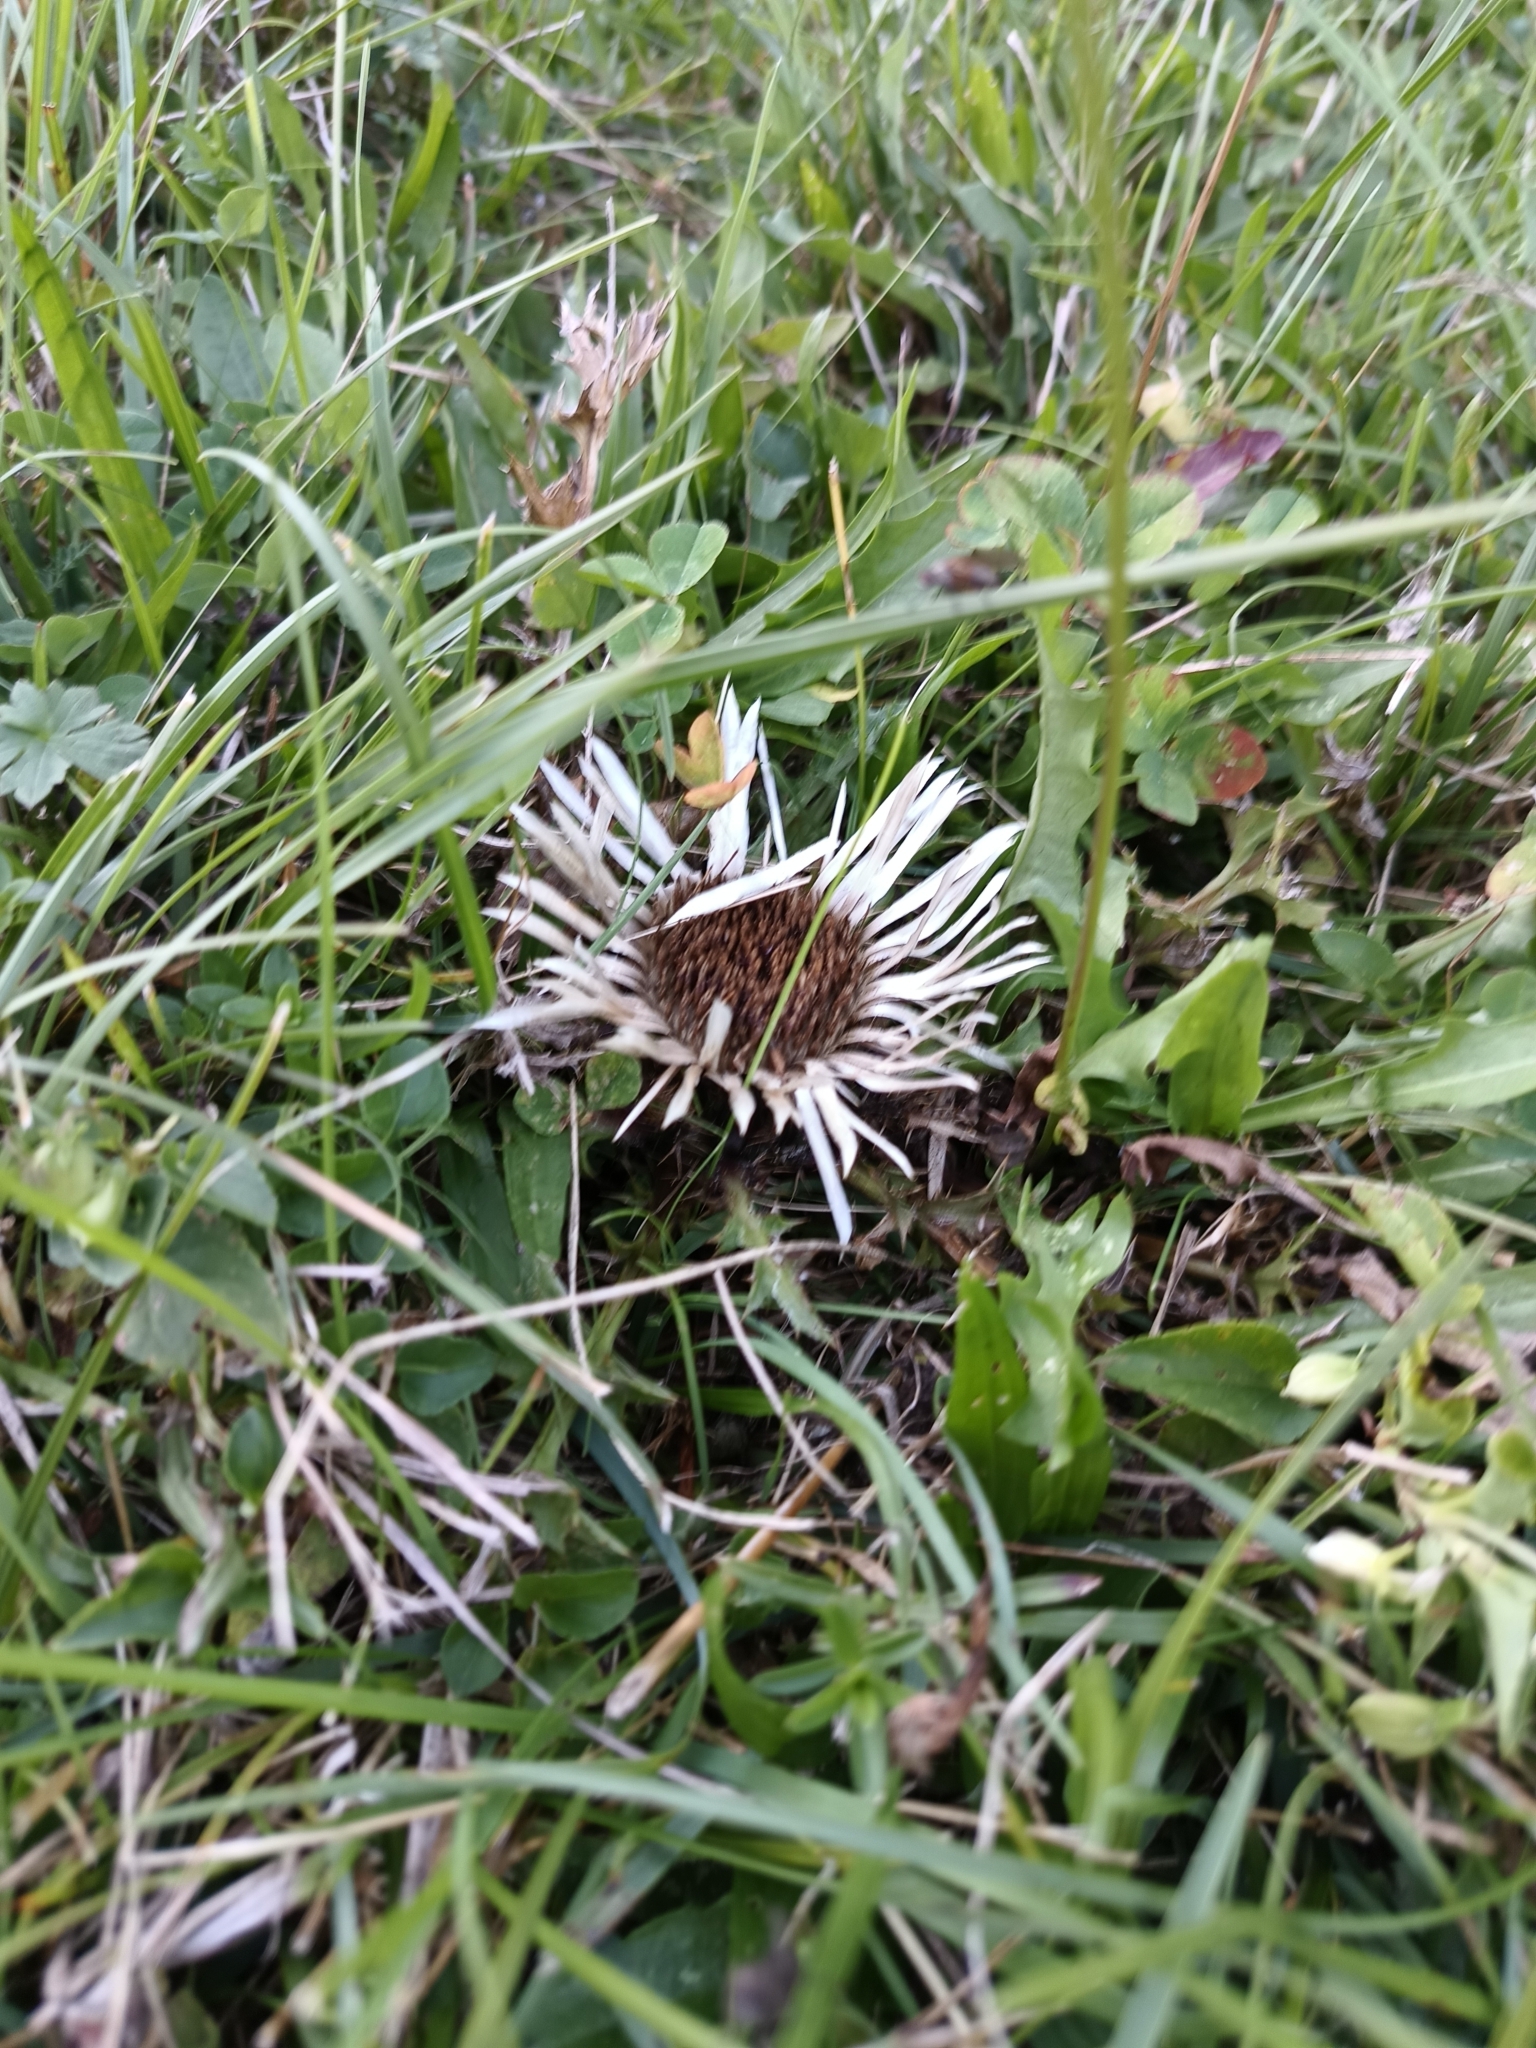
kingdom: Plantae
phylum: Tracheophyta
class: Magnoliopsida
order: Asterales
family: Asteraceae
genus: Carlina
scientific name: Carlina acaulis
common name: Stemless carline thistle
